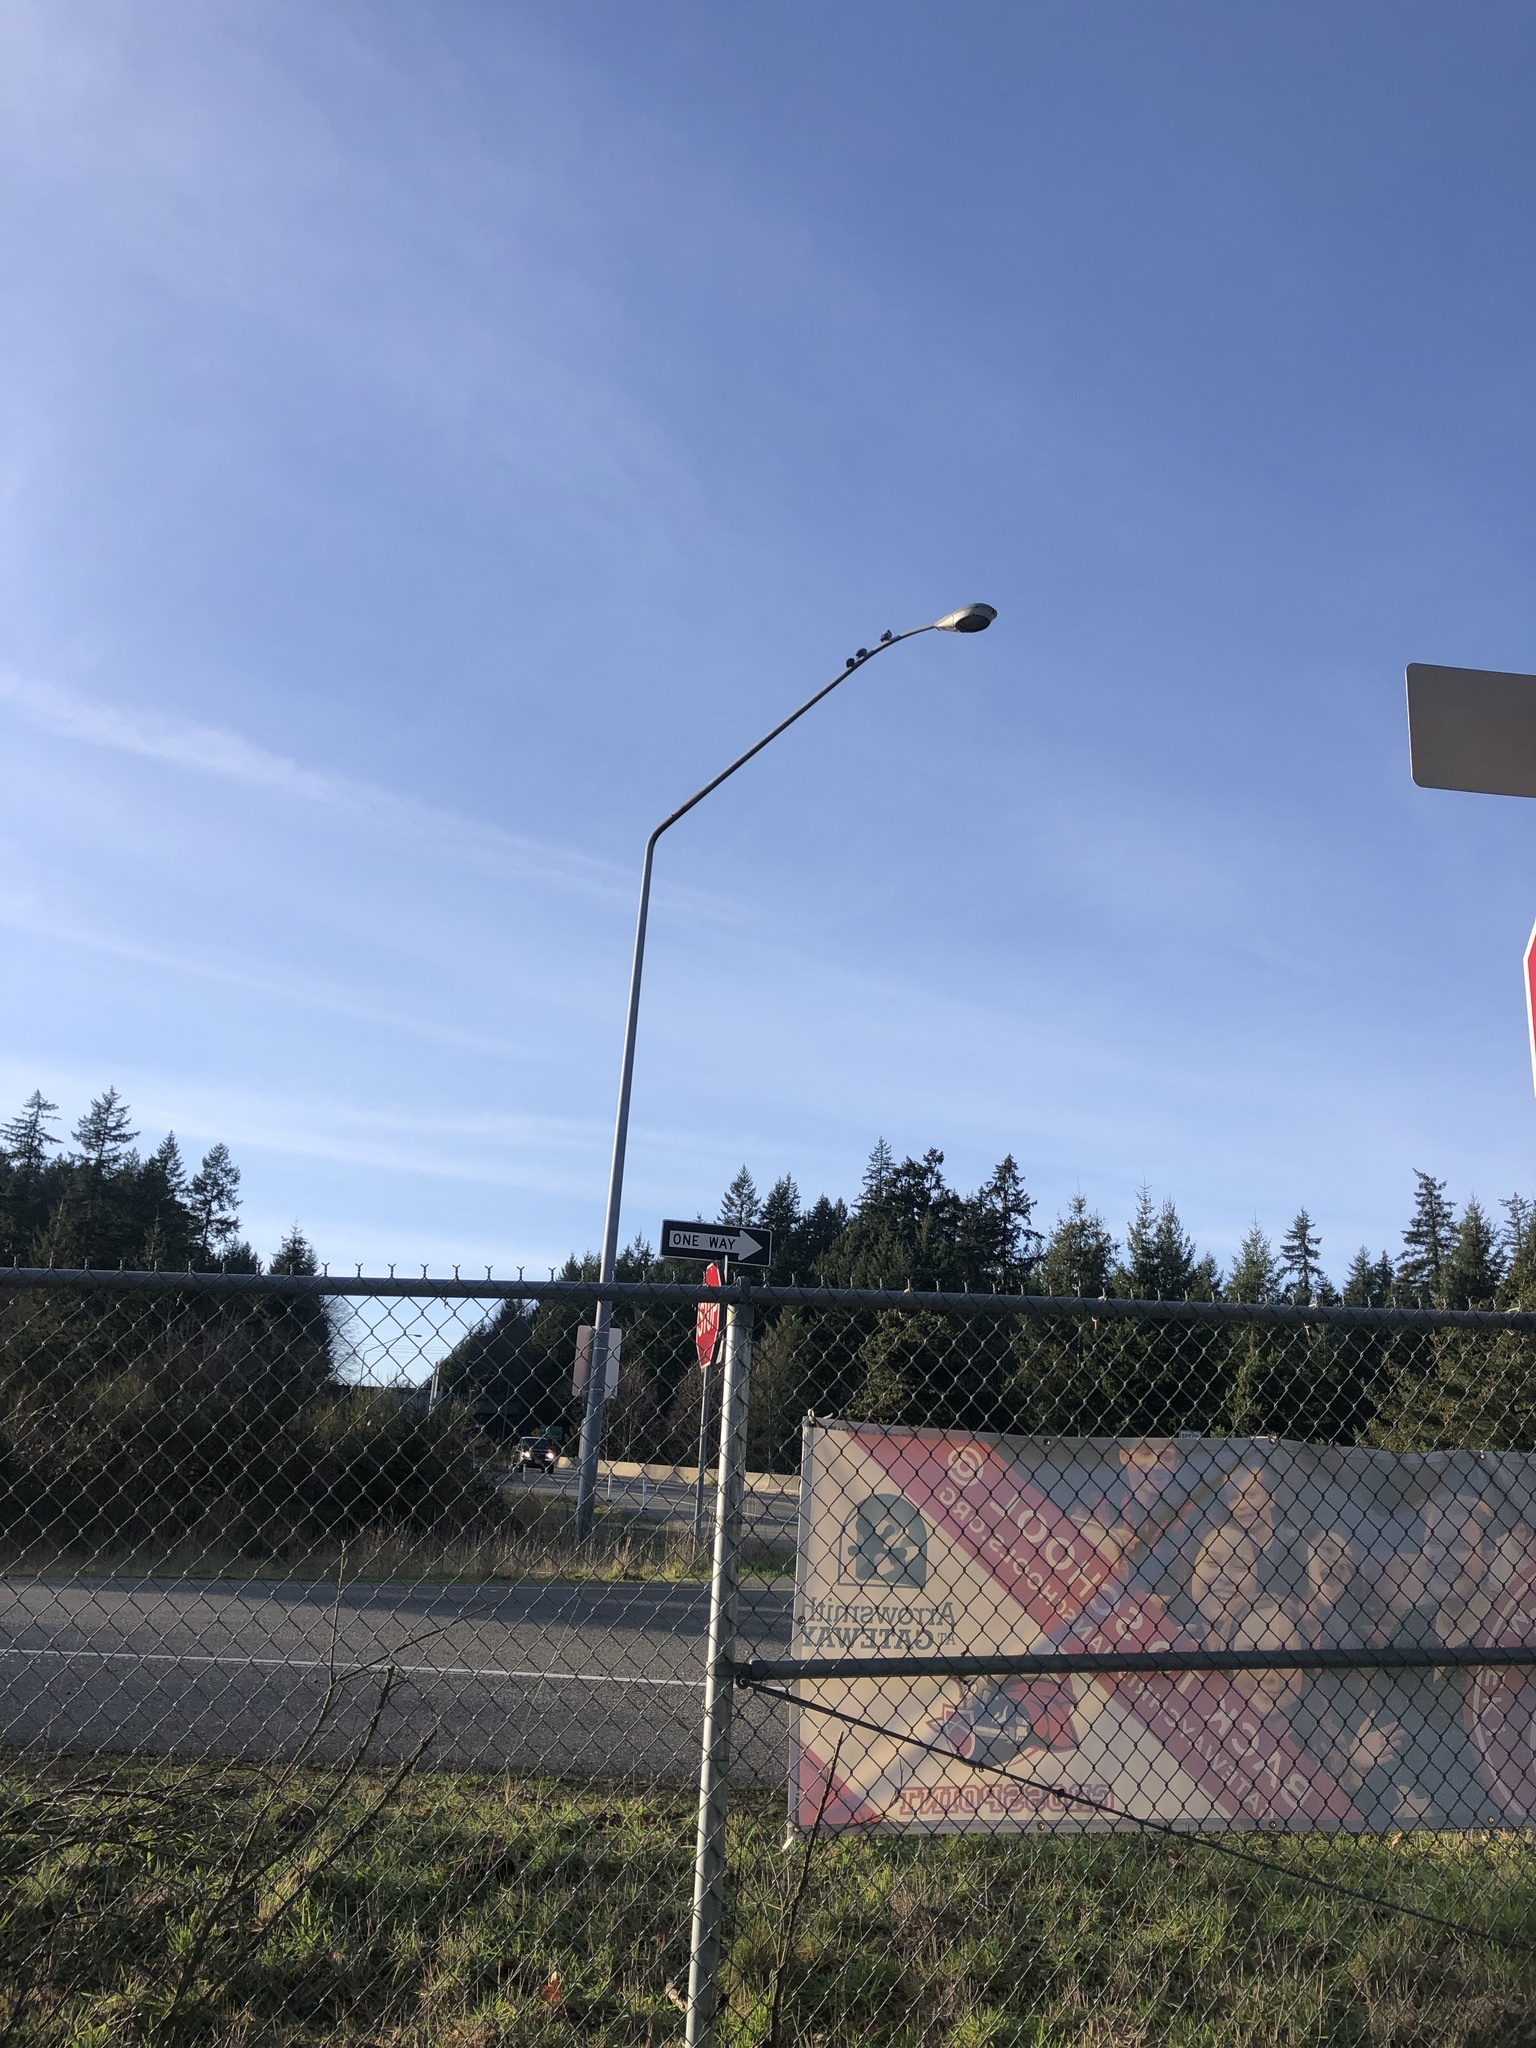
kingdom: Animalia
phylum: Chordata
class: Aves
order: Columbiformes
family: Columbidae
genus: Columba
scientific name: Columba livia
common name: Rock pigeon
